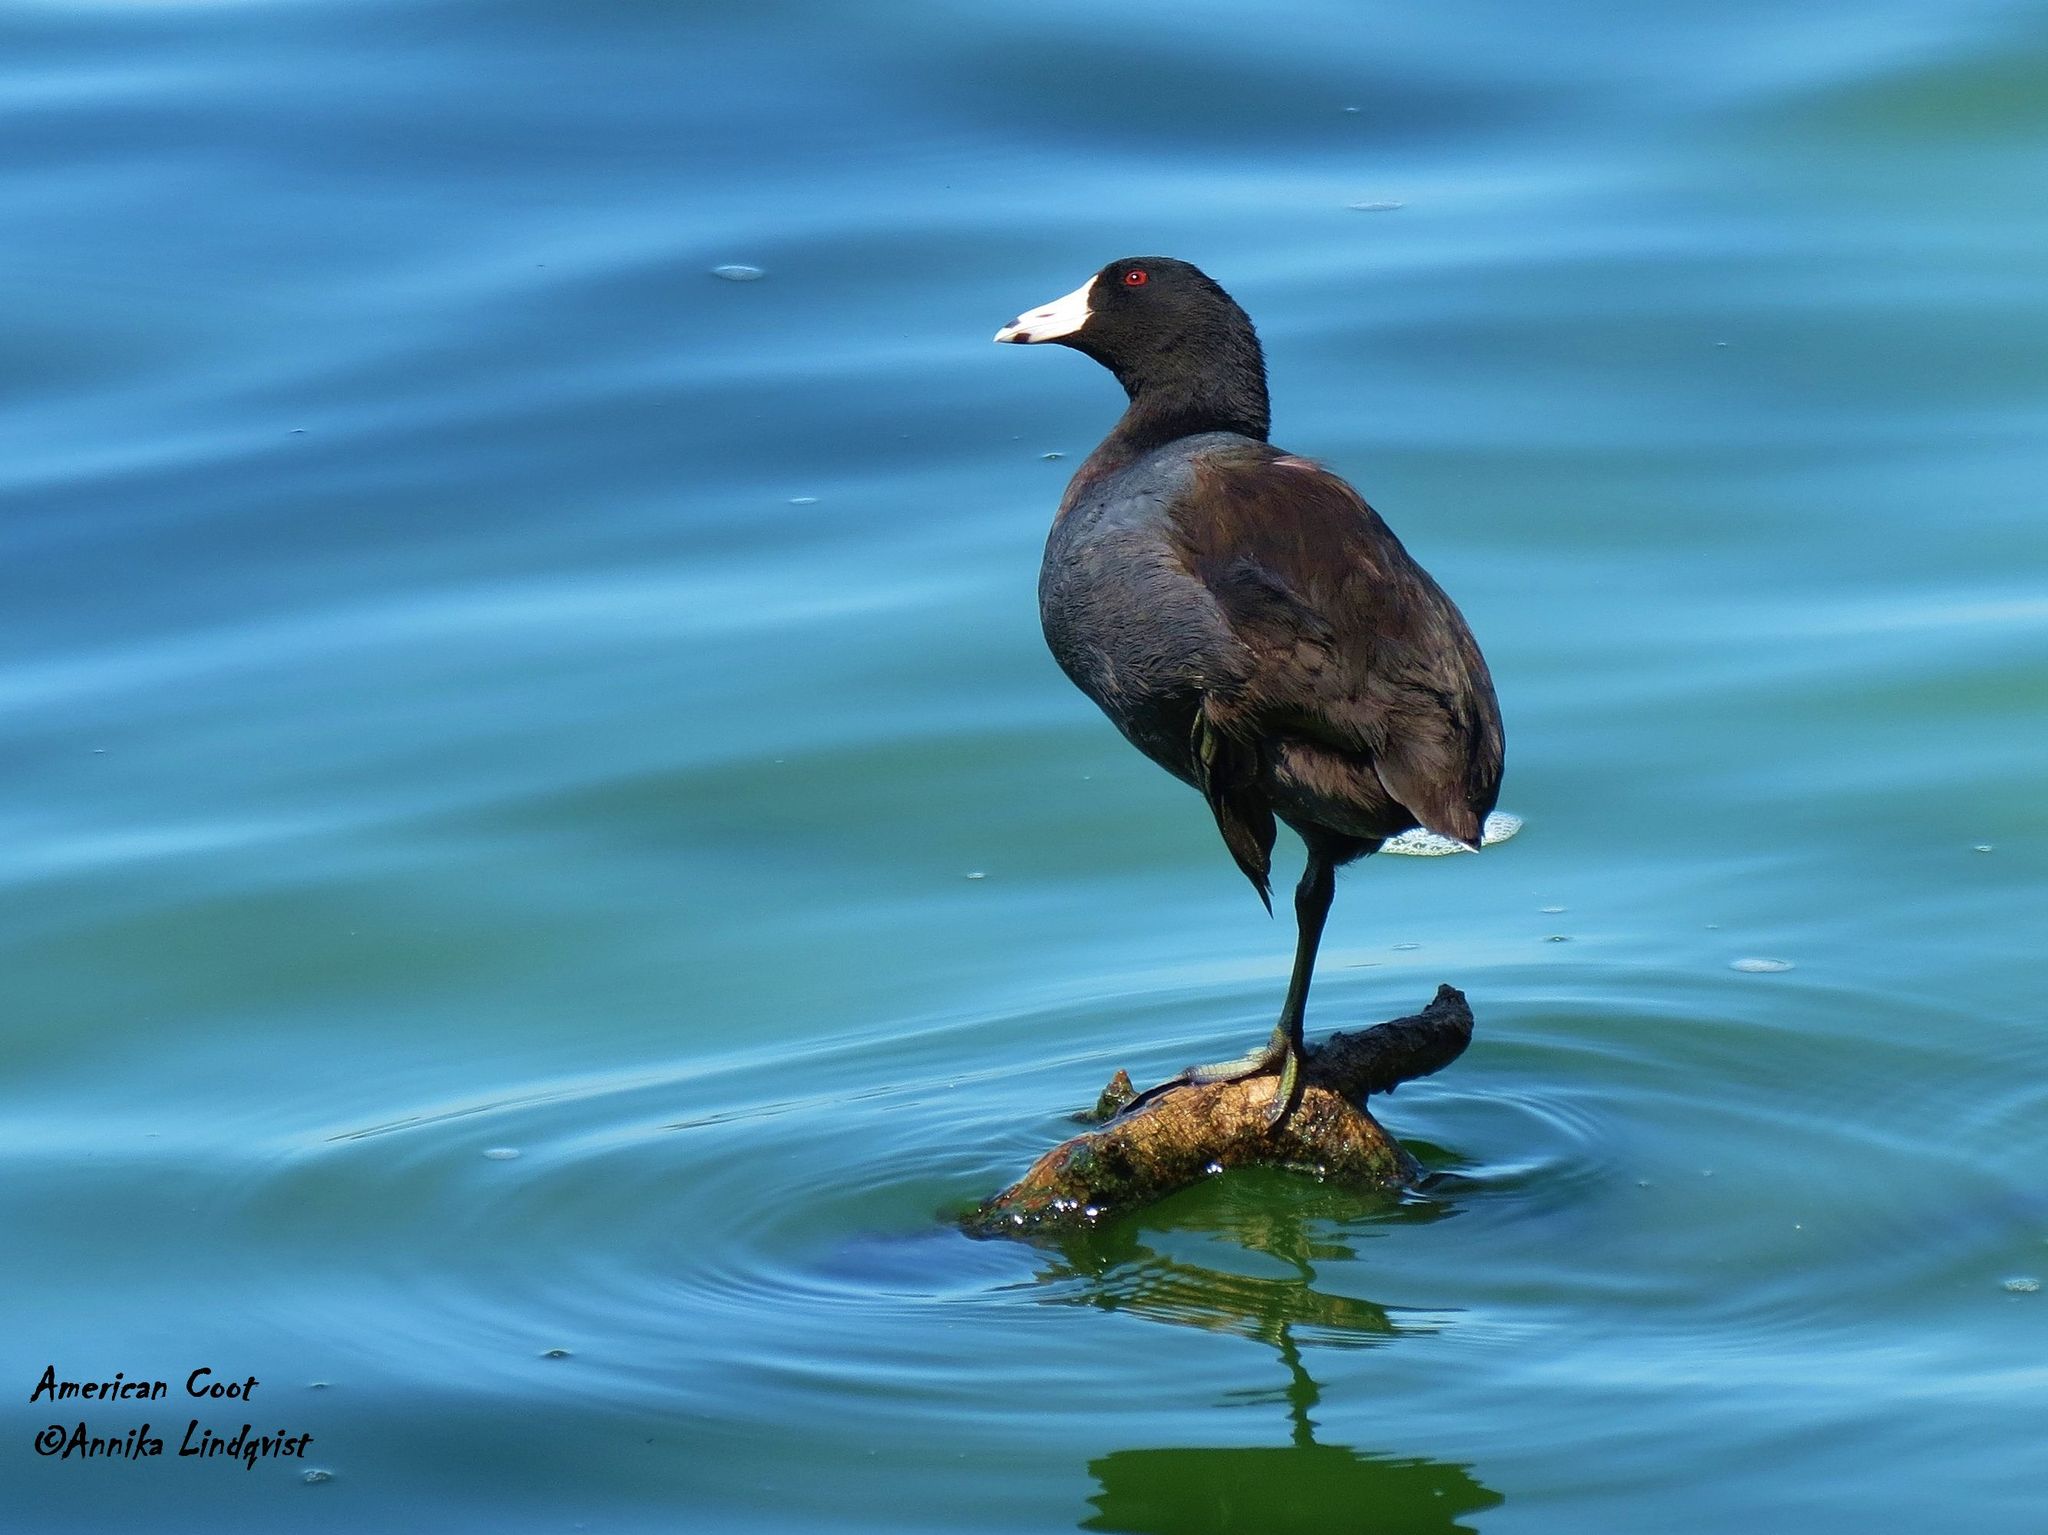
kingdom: Animalia
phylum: Chordata
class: Aves
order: Gruiformes
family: Rallidae
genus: Fulica
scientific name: Fulica americana
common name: American coot
